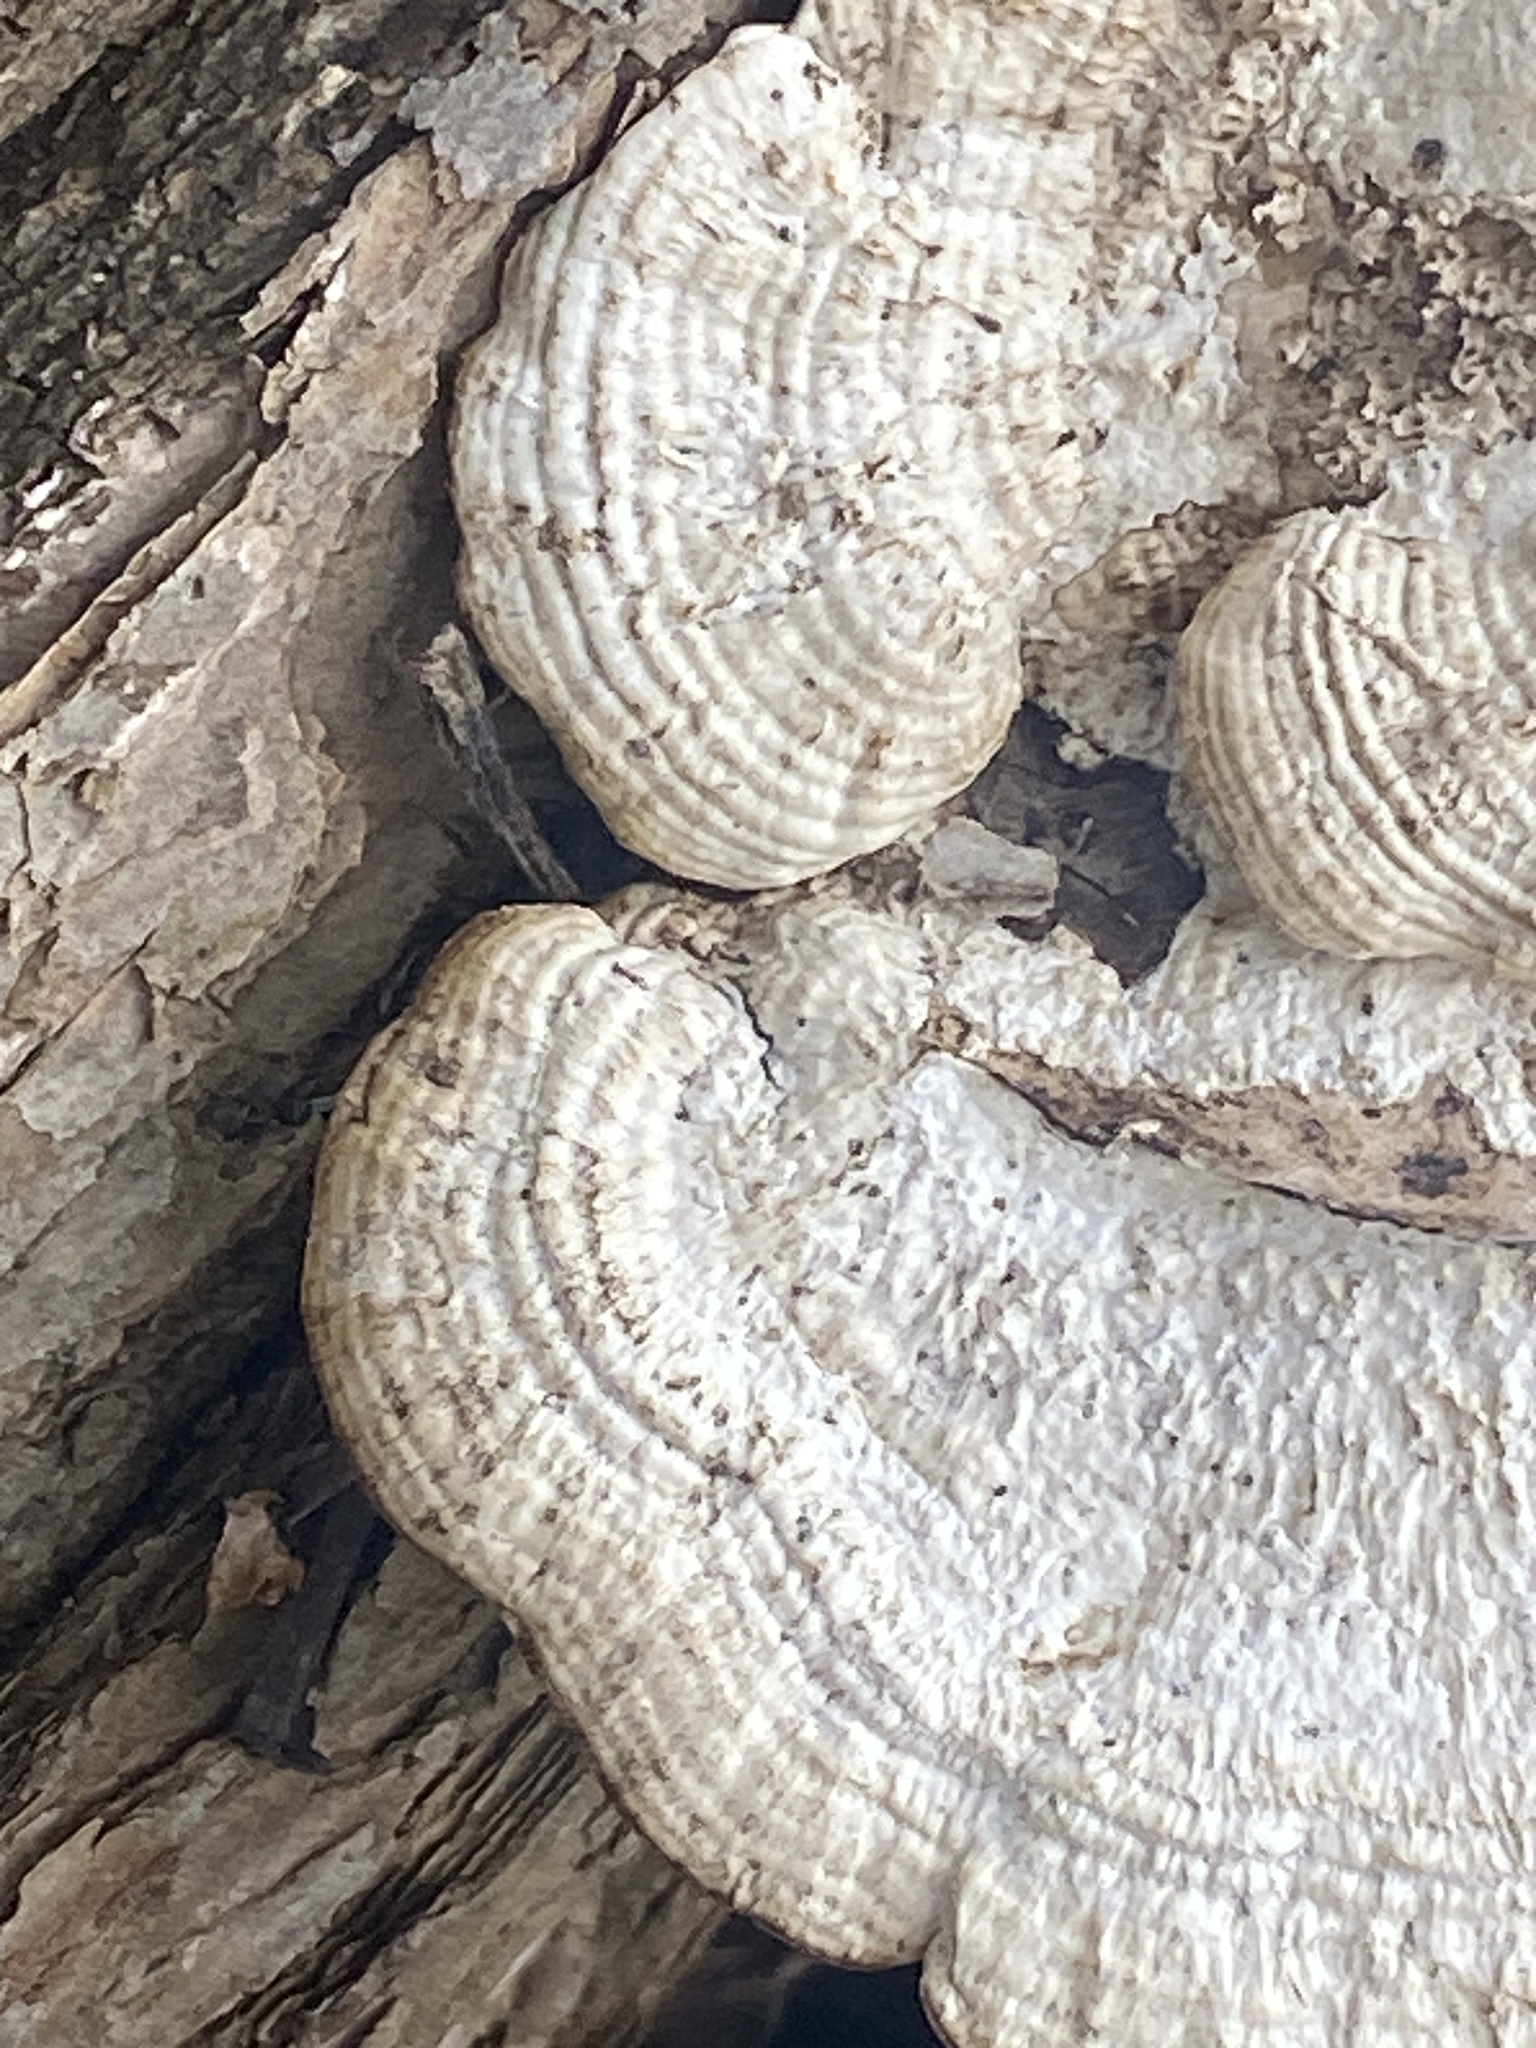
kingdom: Fungi
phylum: Basidiomycota
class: Agaricomycetes
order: Polyporales
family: Polyporaceae
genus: Daedaleopsis
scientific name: Daedaleopsis confragosa
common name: Blushing bracket
